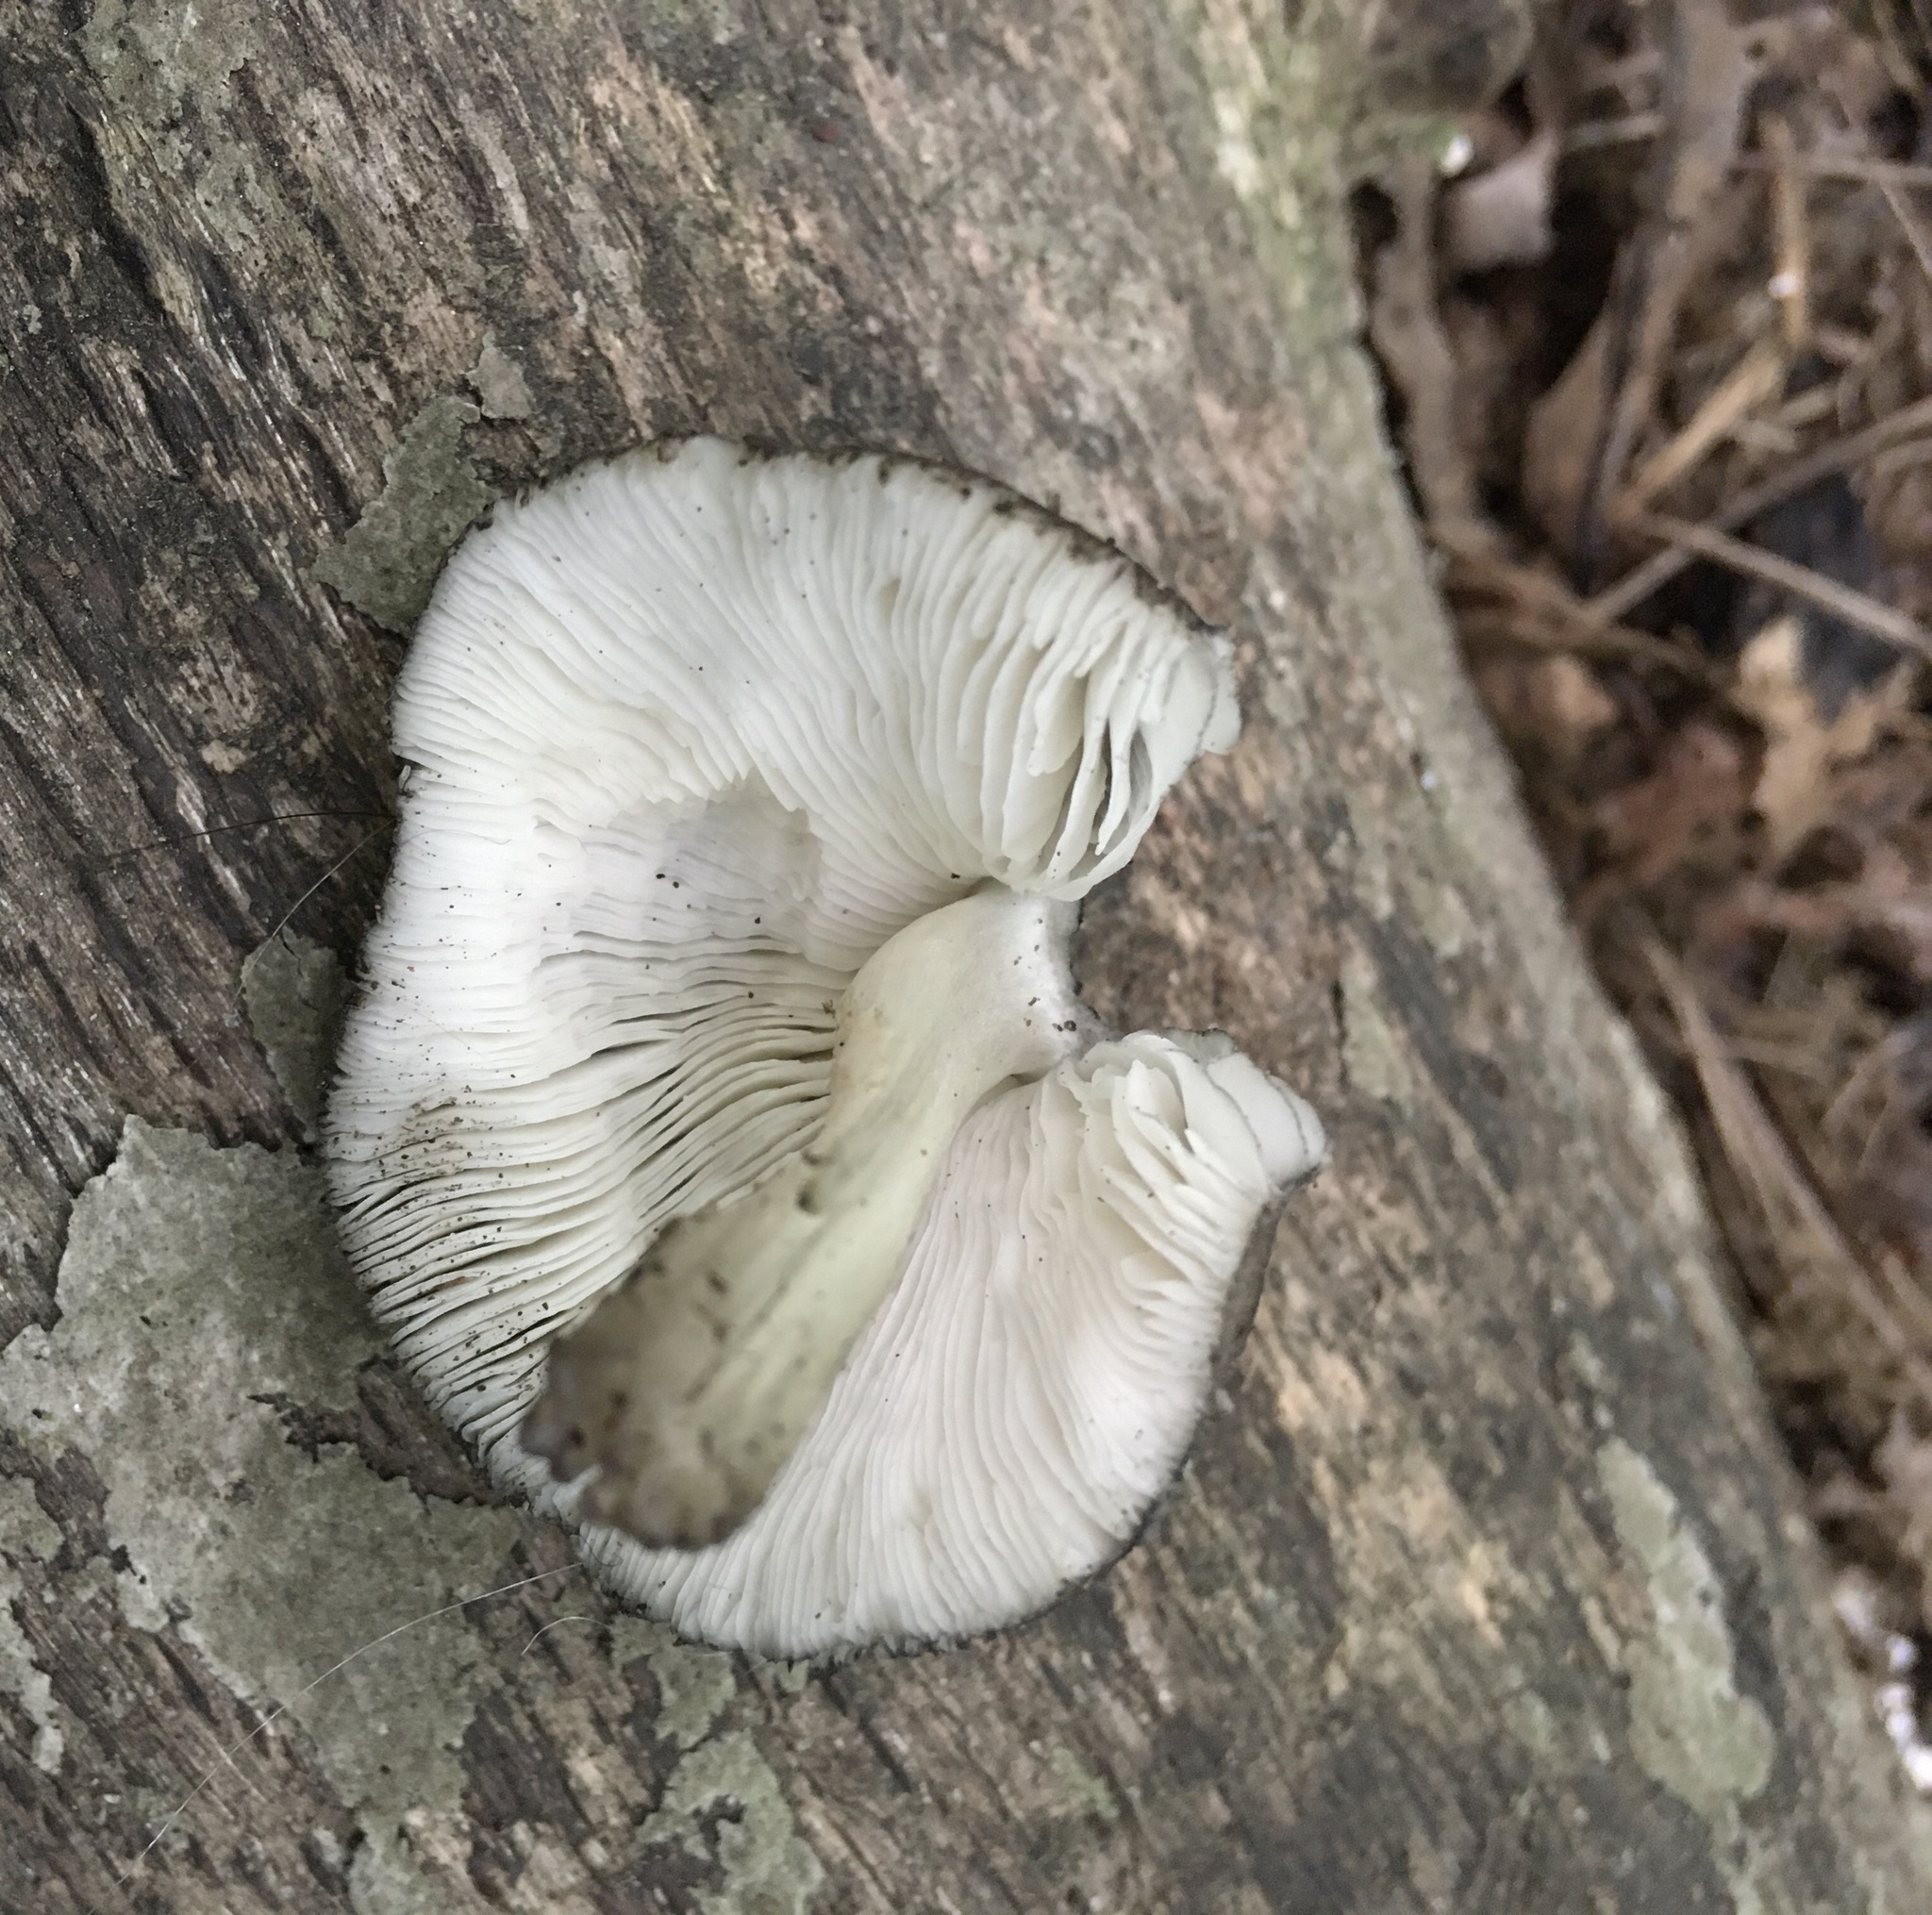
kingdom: Fungi
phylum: Basidiomycota
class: Agaricomycetes
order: Agaricales
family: Pluteaceae
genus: Pluteus
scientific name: Pluteus americanus
